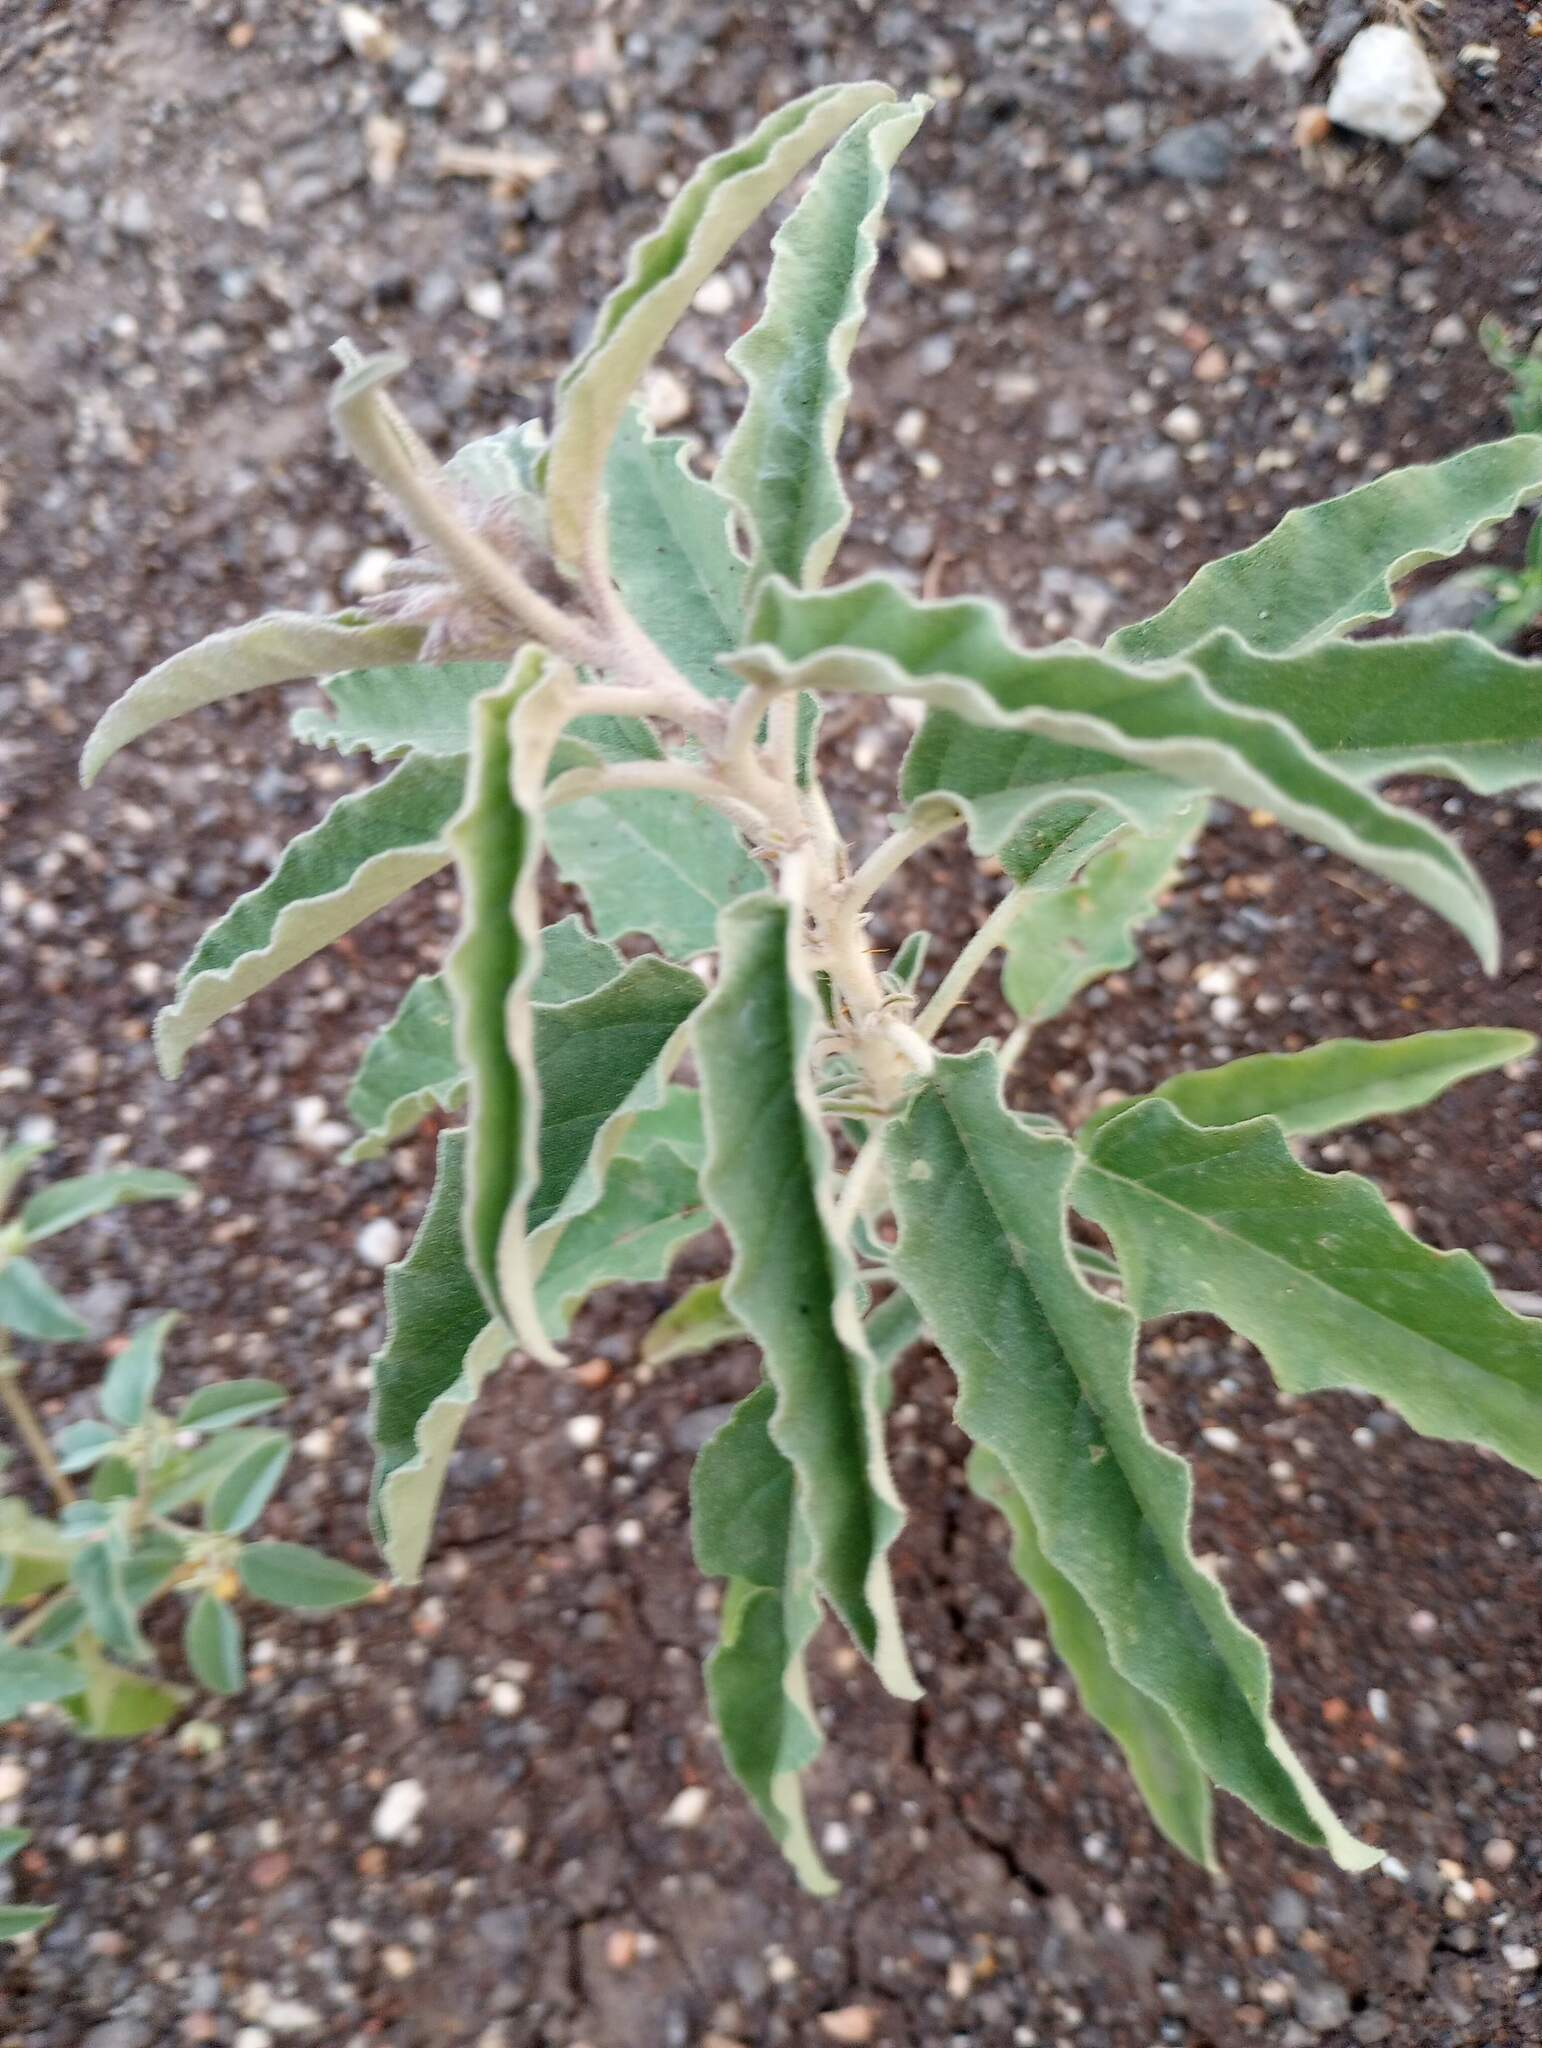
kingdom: Plantae
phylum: Tracheophyta
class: Magnoliopsida
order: Solanales
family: Solanaceae
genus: Solanum
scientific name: Solanum elaeagnifolium
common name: Silverleaf nightshade
